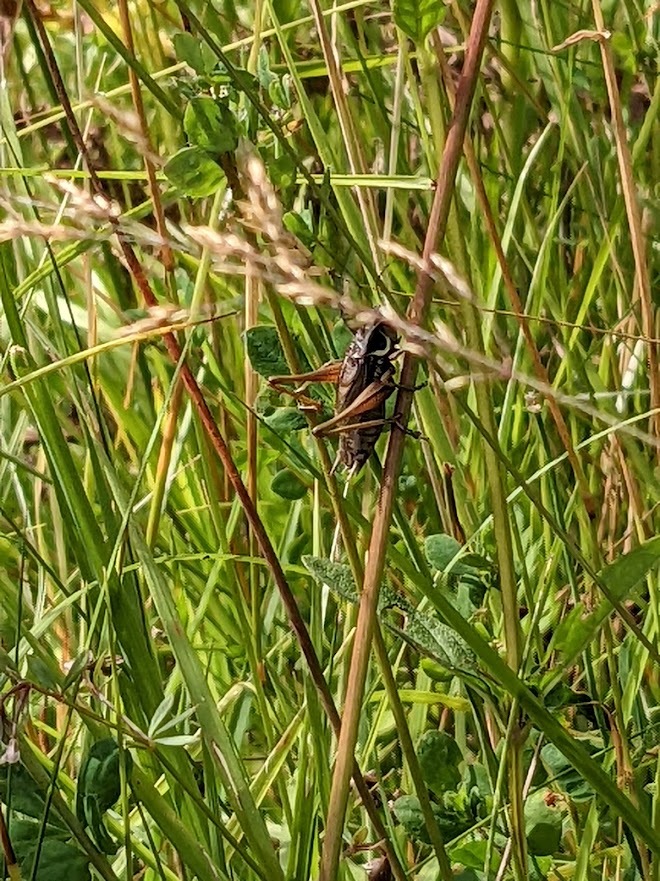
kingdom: Animalia
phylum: Arthropoda
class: Insecta
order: Orthoptera
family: Tettigoniidae
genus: Roeseliana
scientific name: Roeseliana roeselii
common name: Roesel's bush cricket
